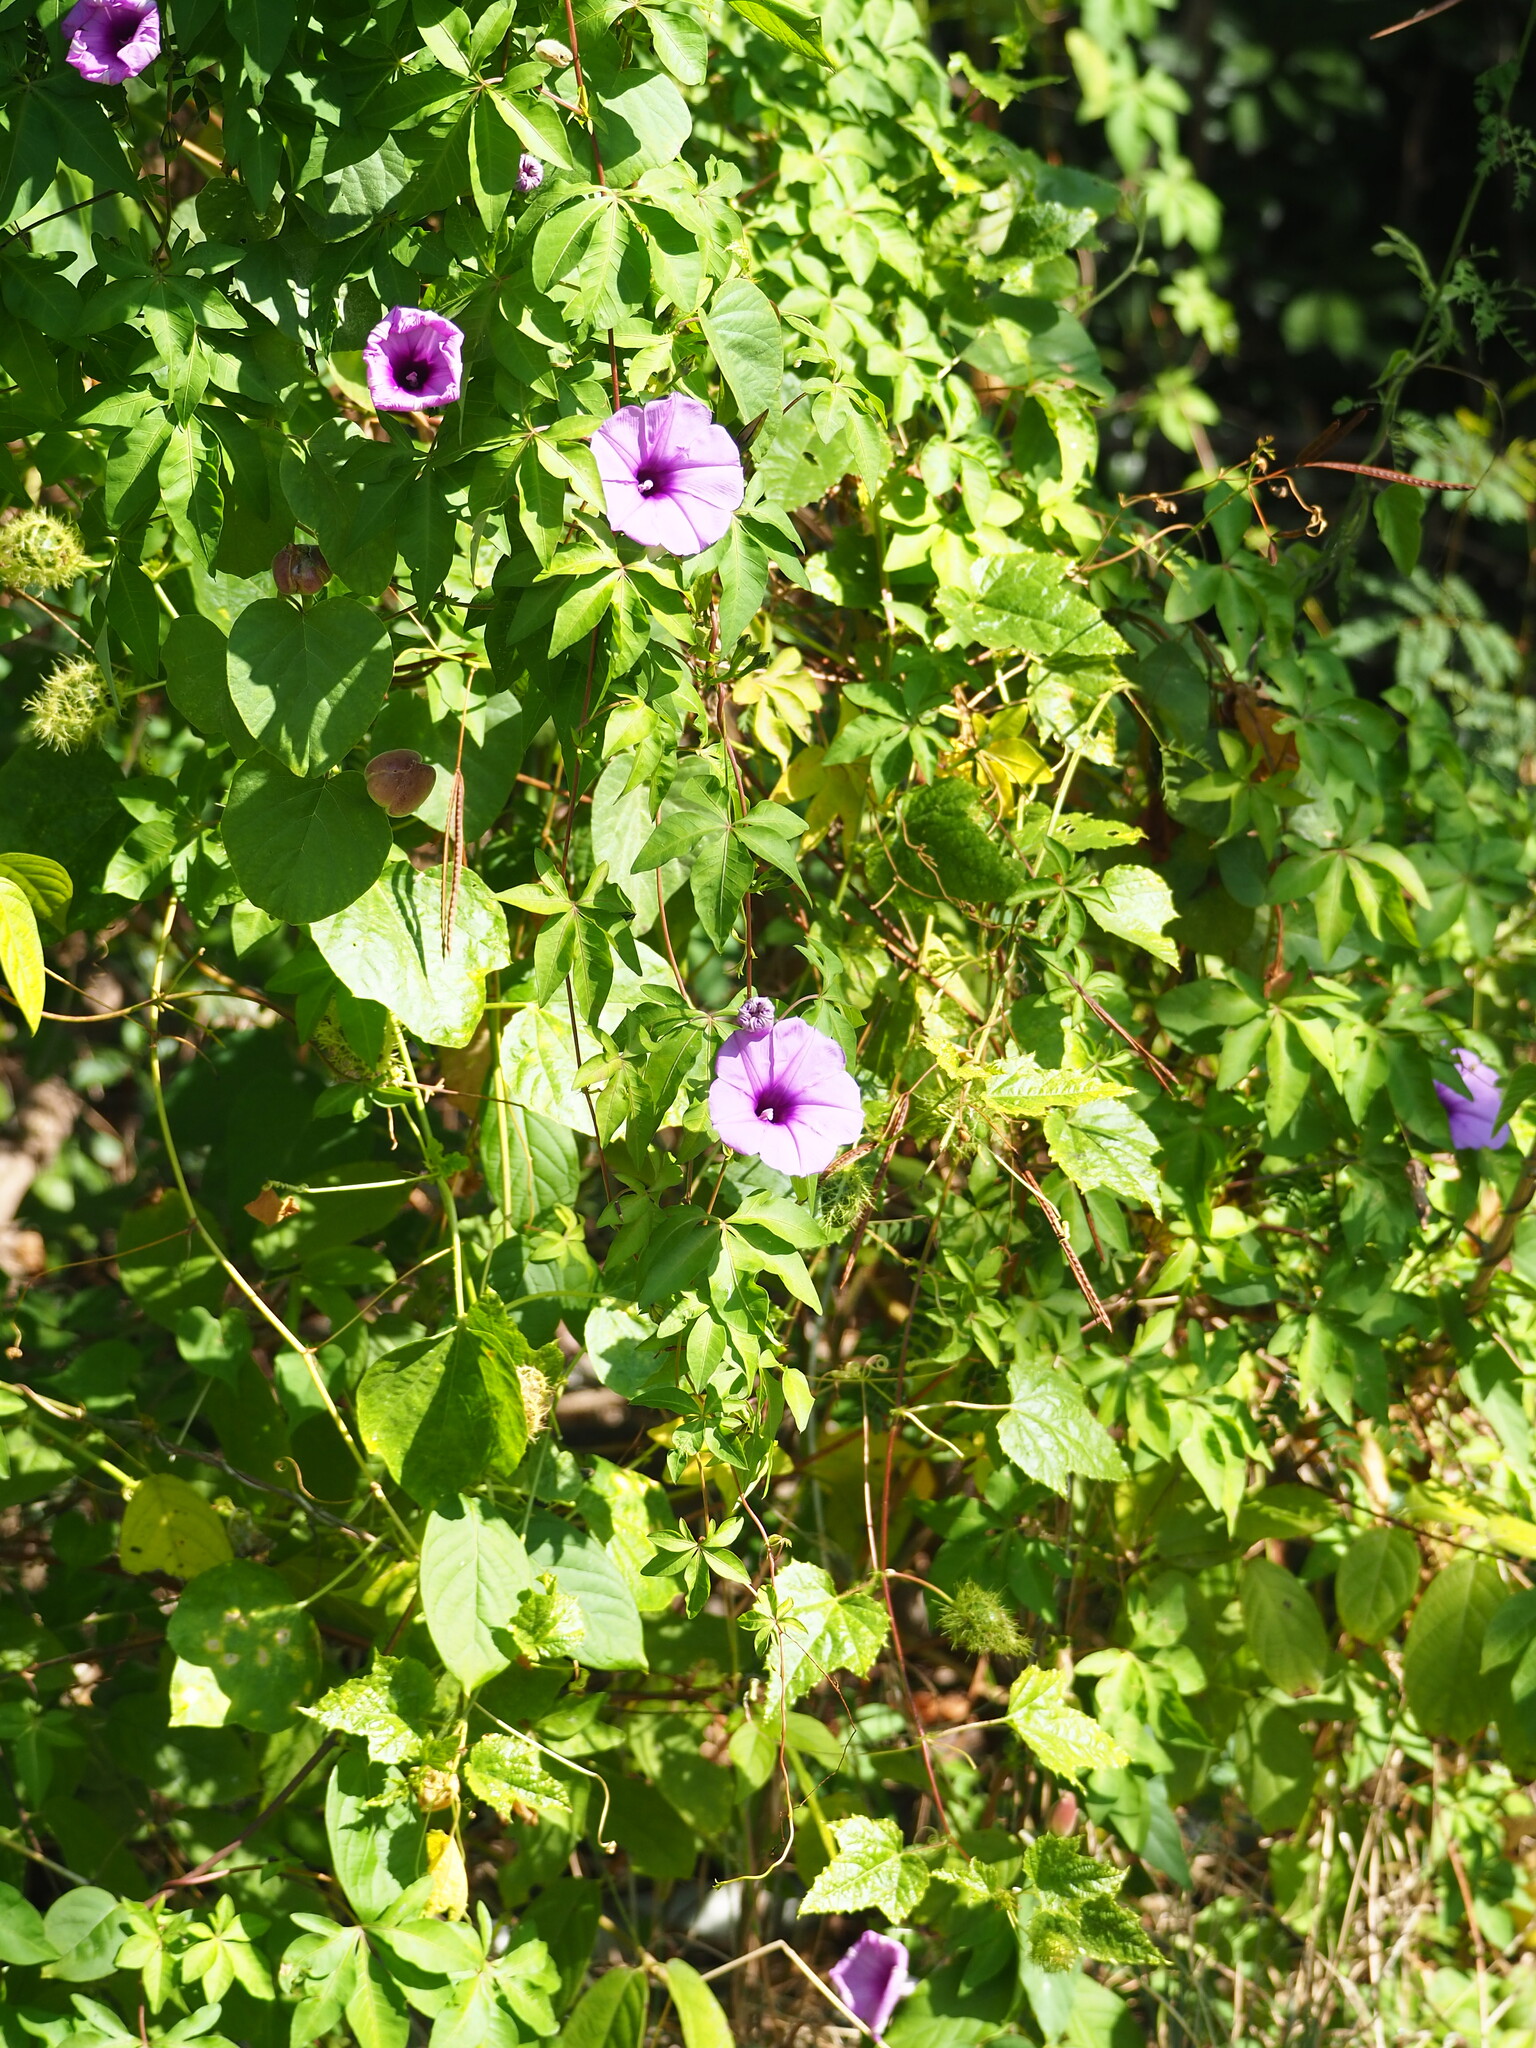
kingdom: Plantae
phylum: Tracheophyta
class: Magnoliopsida
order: Solanales
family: Convolvulaceae
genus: Ipomoea
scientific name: Ipomoea cairica
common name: Mile a minute vine
